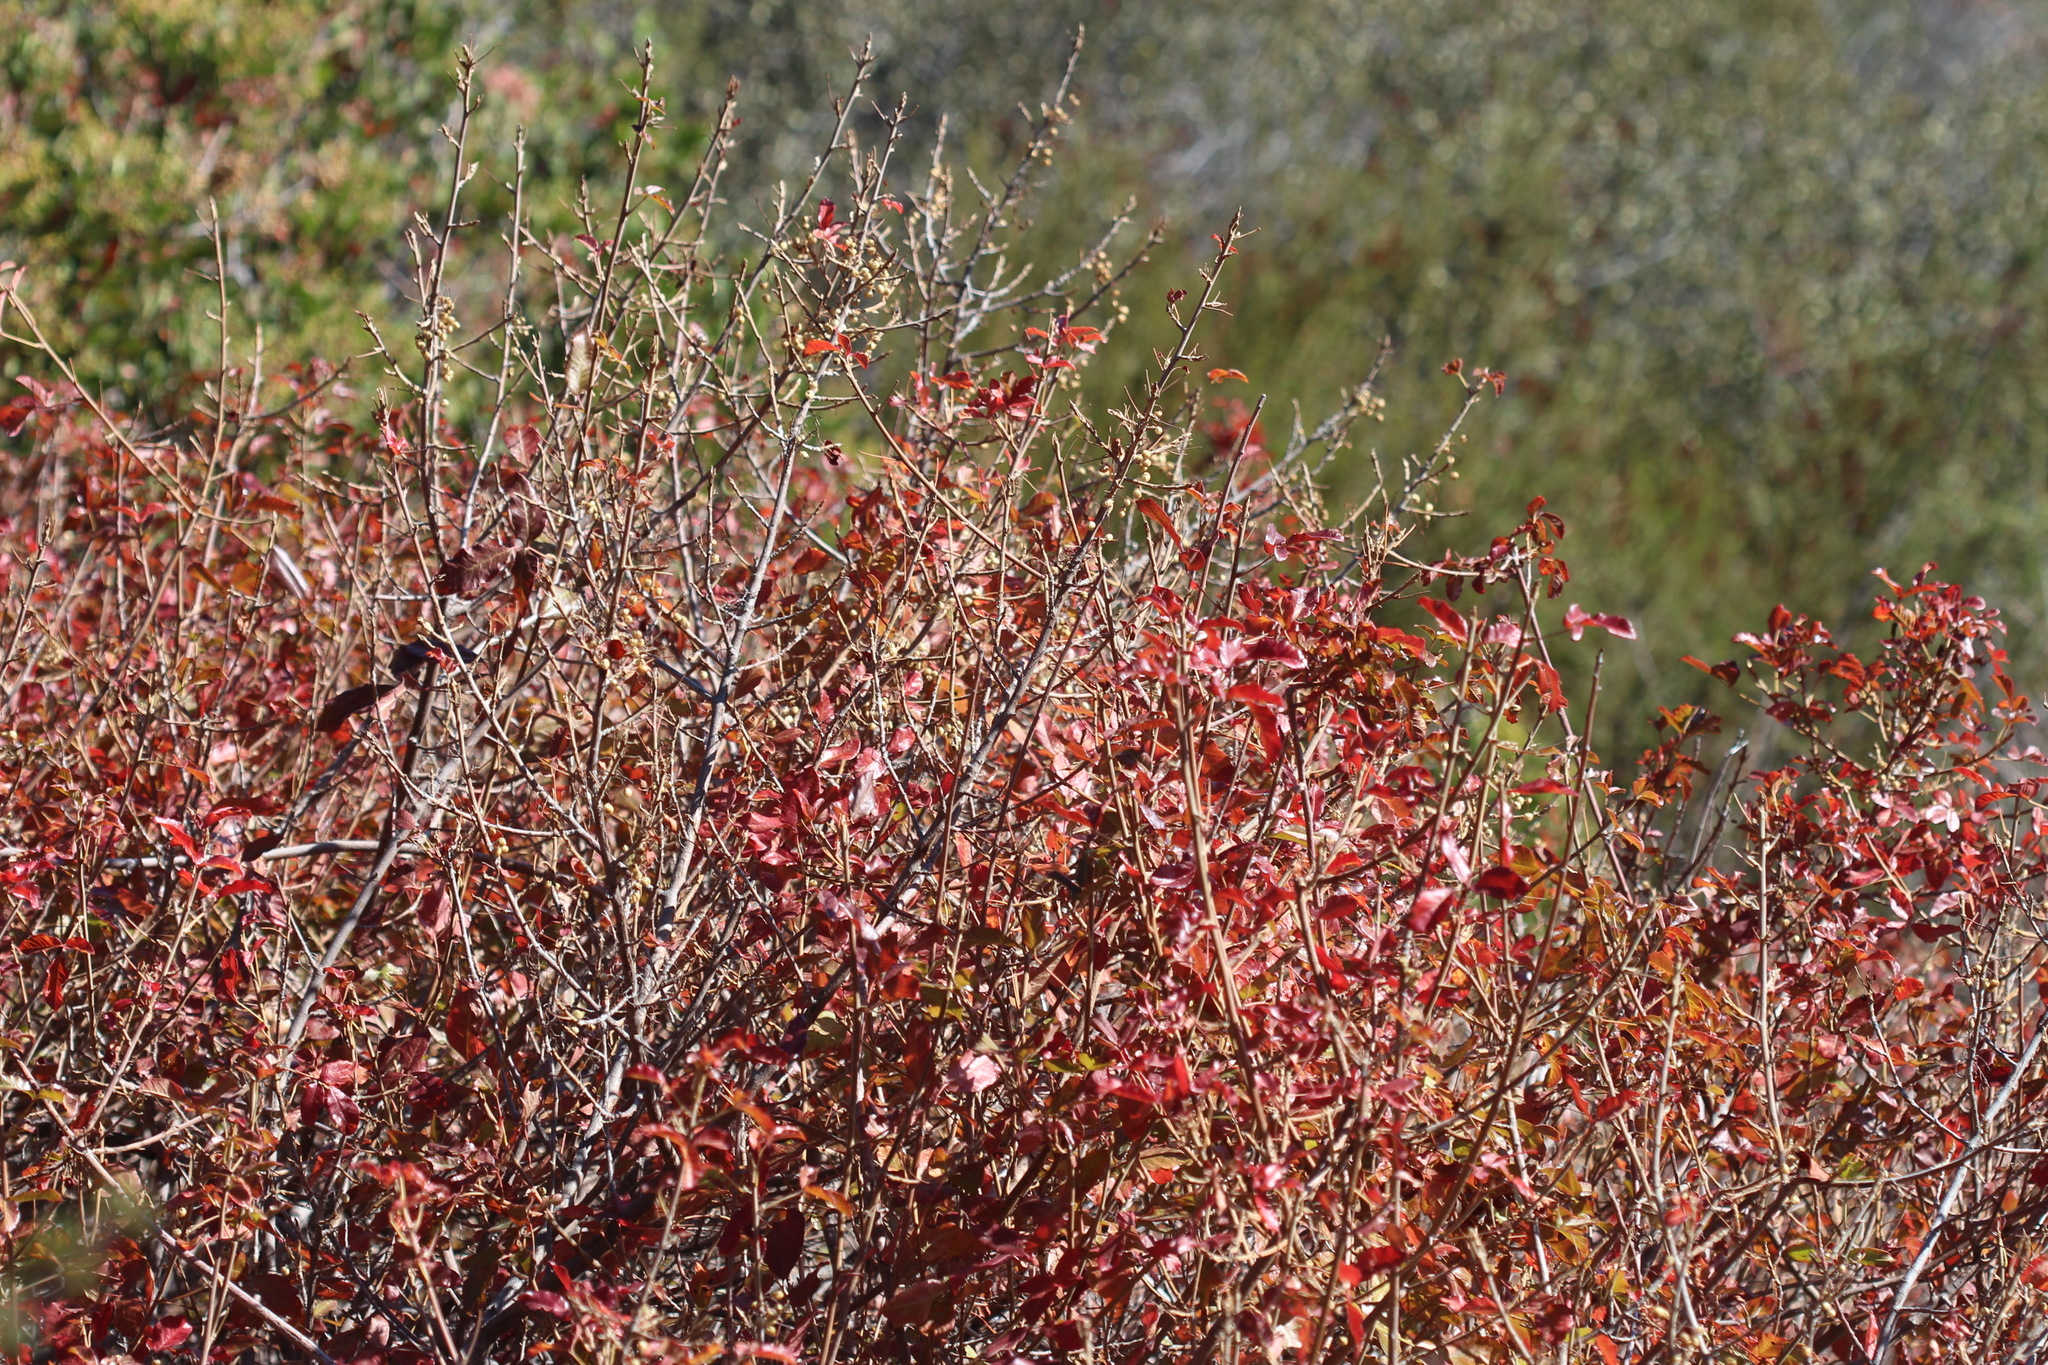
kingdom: Plantae
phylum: Tracheophyta
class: Magnoliopsida
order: Sapindales
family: Anacardiaceae
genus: Toxicodendron
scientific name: Toxicodendron diversilobum
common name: Pacific poison-oak
